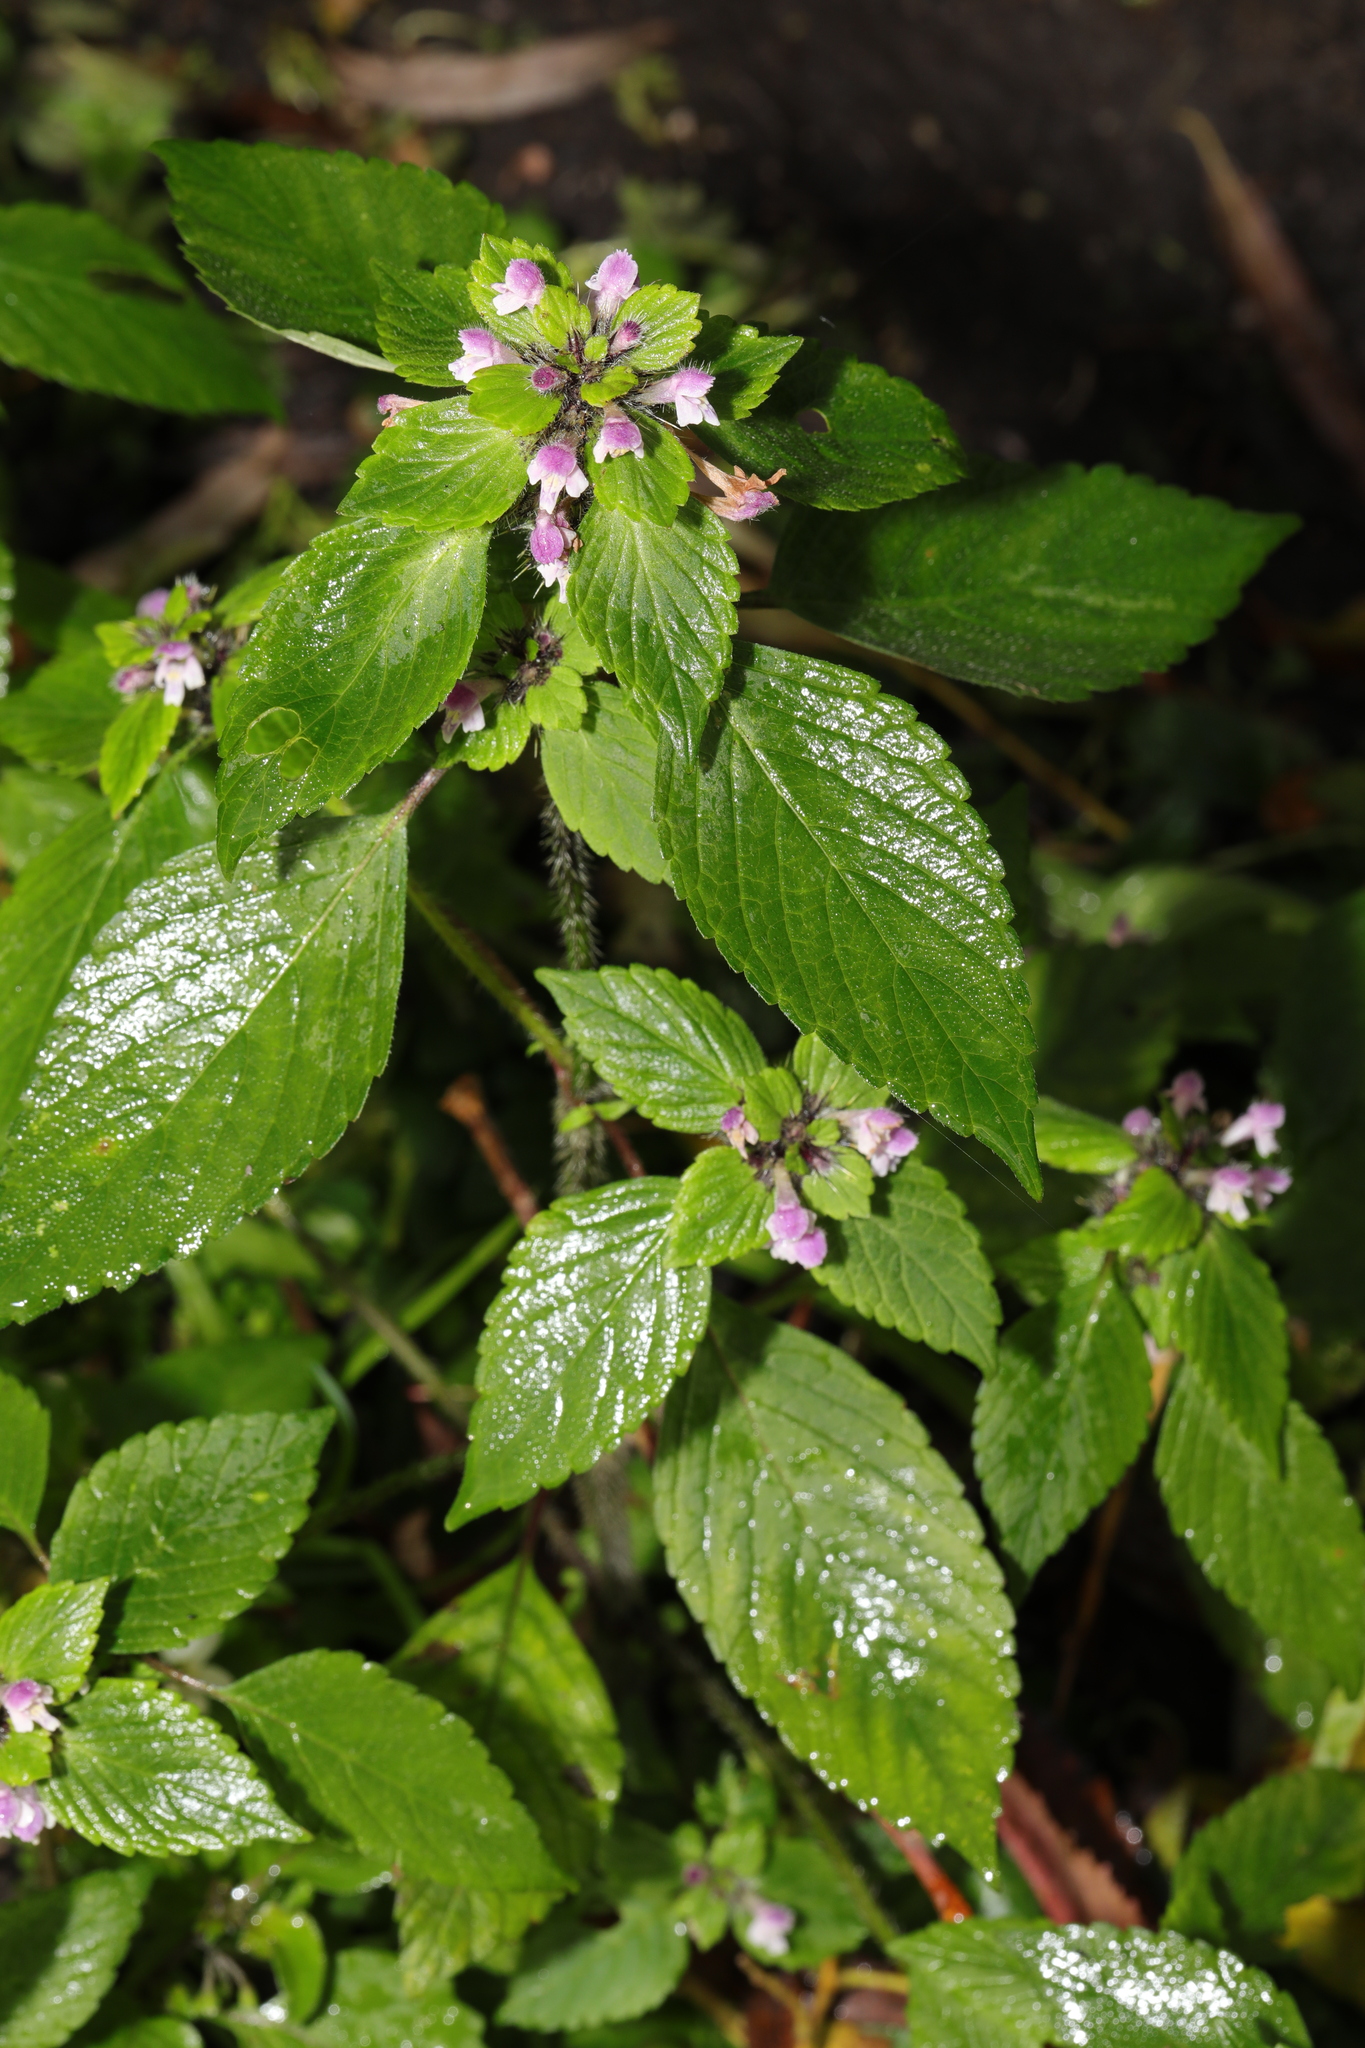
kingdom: Plantae
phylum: Tracheophyta
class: Magnoliopsida
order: Lamiales
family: Lamiaceae
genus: Galeopsis
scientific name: Galeopsis bifida
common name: Bifid hemp-nettle
